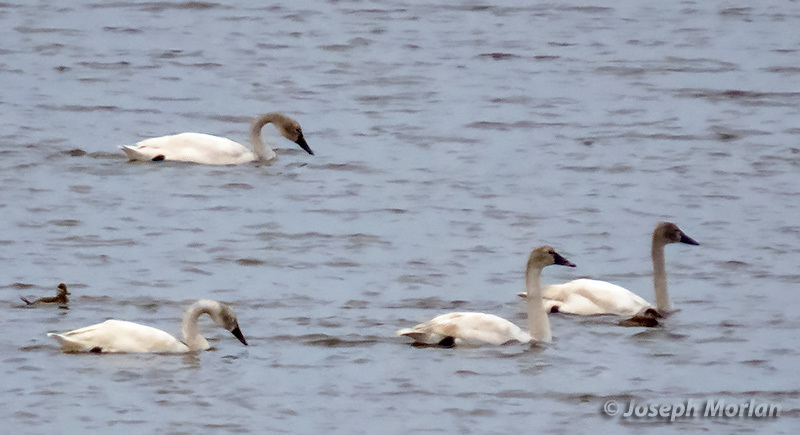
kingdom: Animalia
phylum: Chordata
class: Aves
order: Anseriformes
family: Anatidae
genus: Cygnus
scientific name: Cygnus columbianus
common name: Tundra swan
